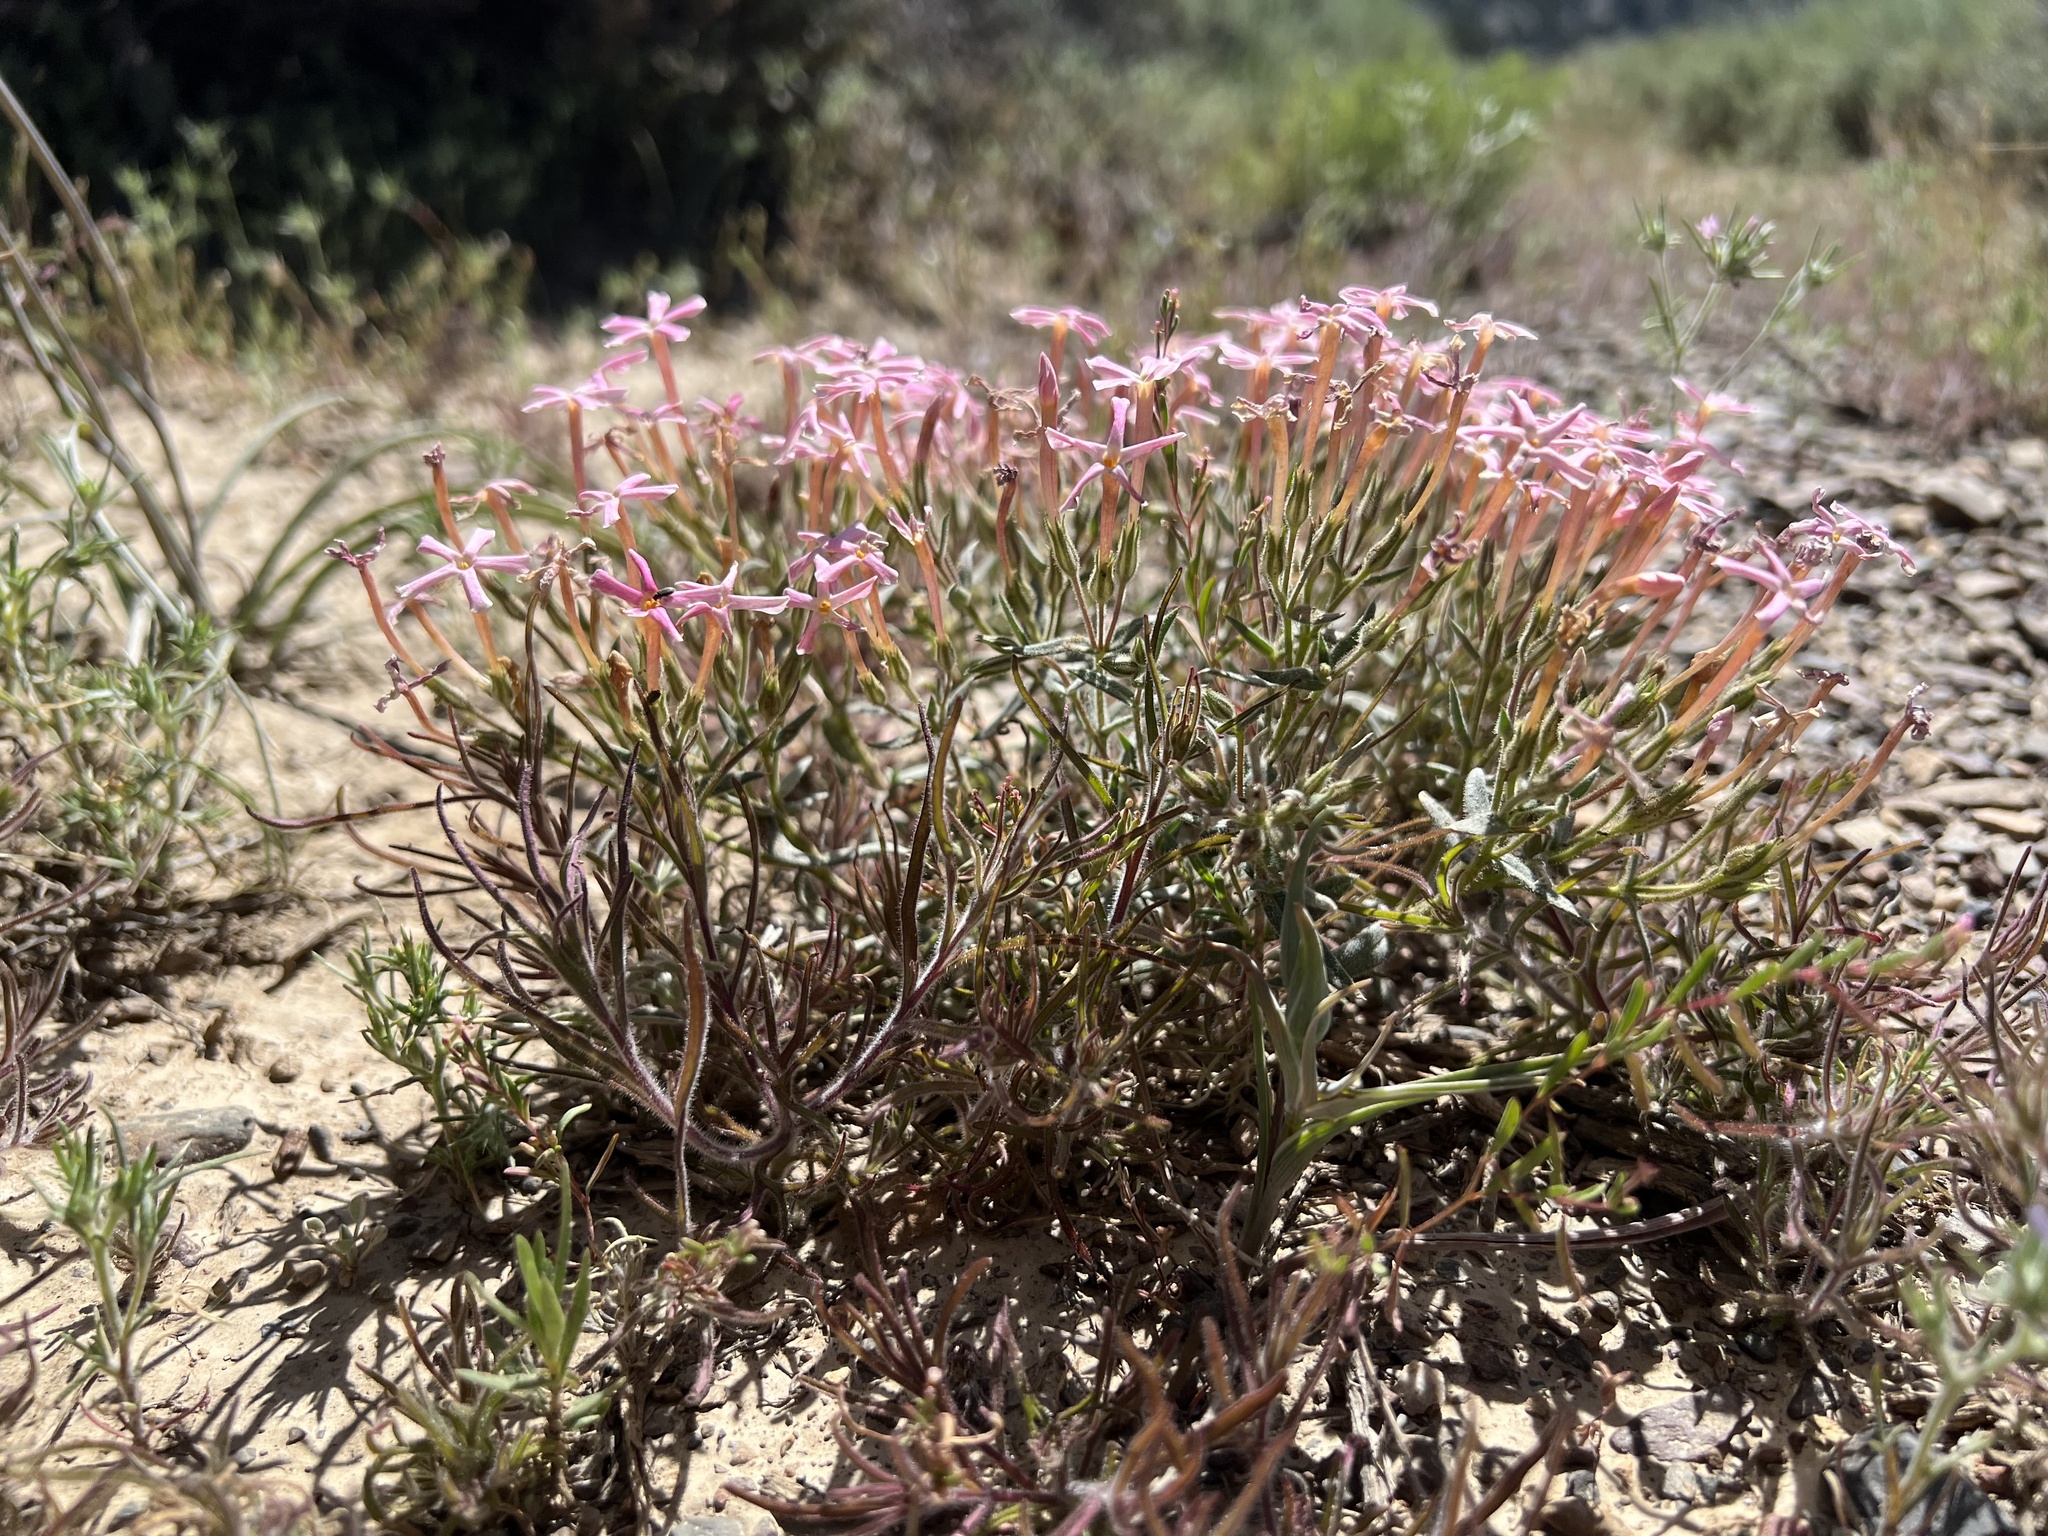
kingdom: Plantae
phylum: Tracheophyta
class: Magnoliopsida
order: Ericales
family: Polemoniaceae
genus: Phlox
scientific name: Phlox longifolia
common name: Longleaf phlox
